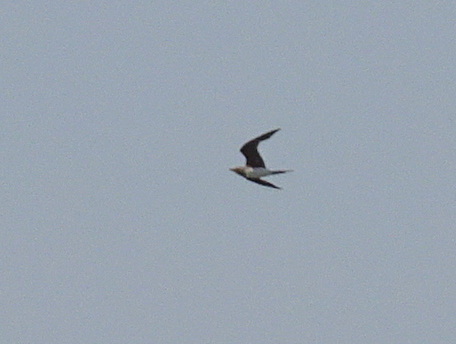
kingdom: Animalia
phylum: Chordata
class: Aves
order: Charadriiformes
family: Glareolidae
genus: Glareola
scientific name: Glareola pratincola
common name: Collared pratincole
